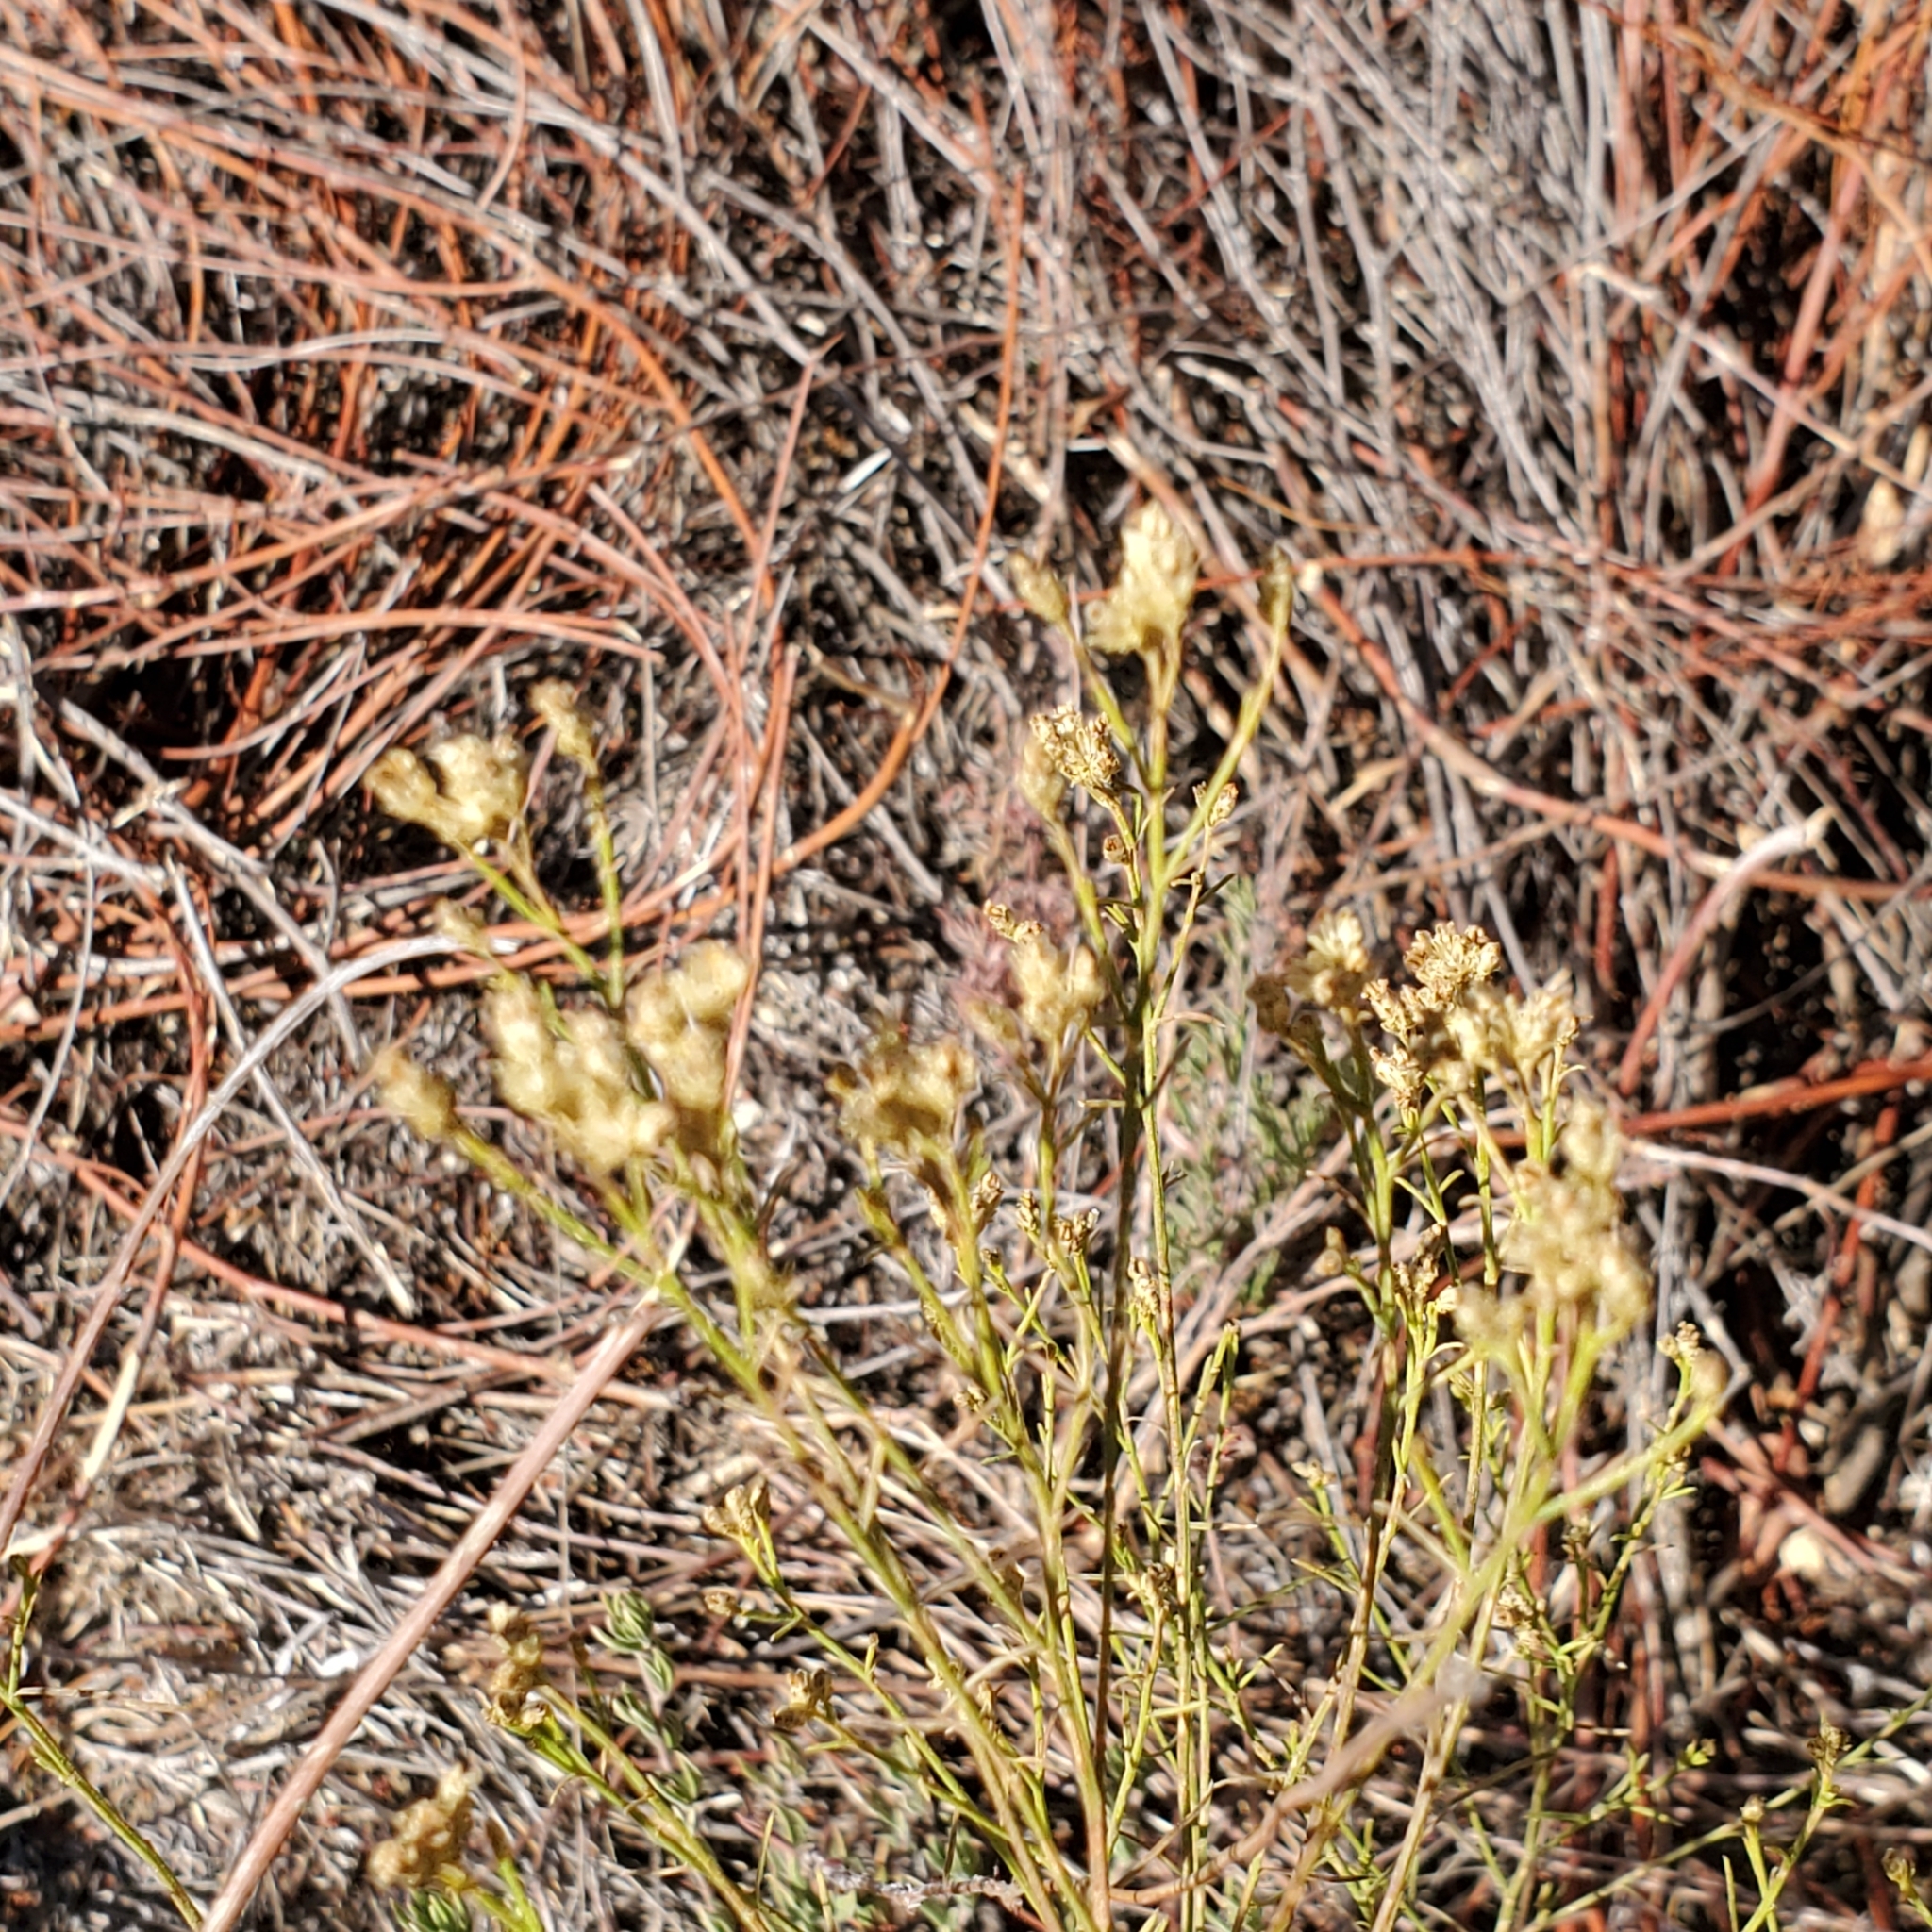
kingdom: Plantae
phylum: Tracheophyta
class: Magnoliopsida
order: Asterales
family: Asteraceae
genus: Gutierrezia
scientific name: Gutierrezia sarothrae
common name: Broom snakeweed
